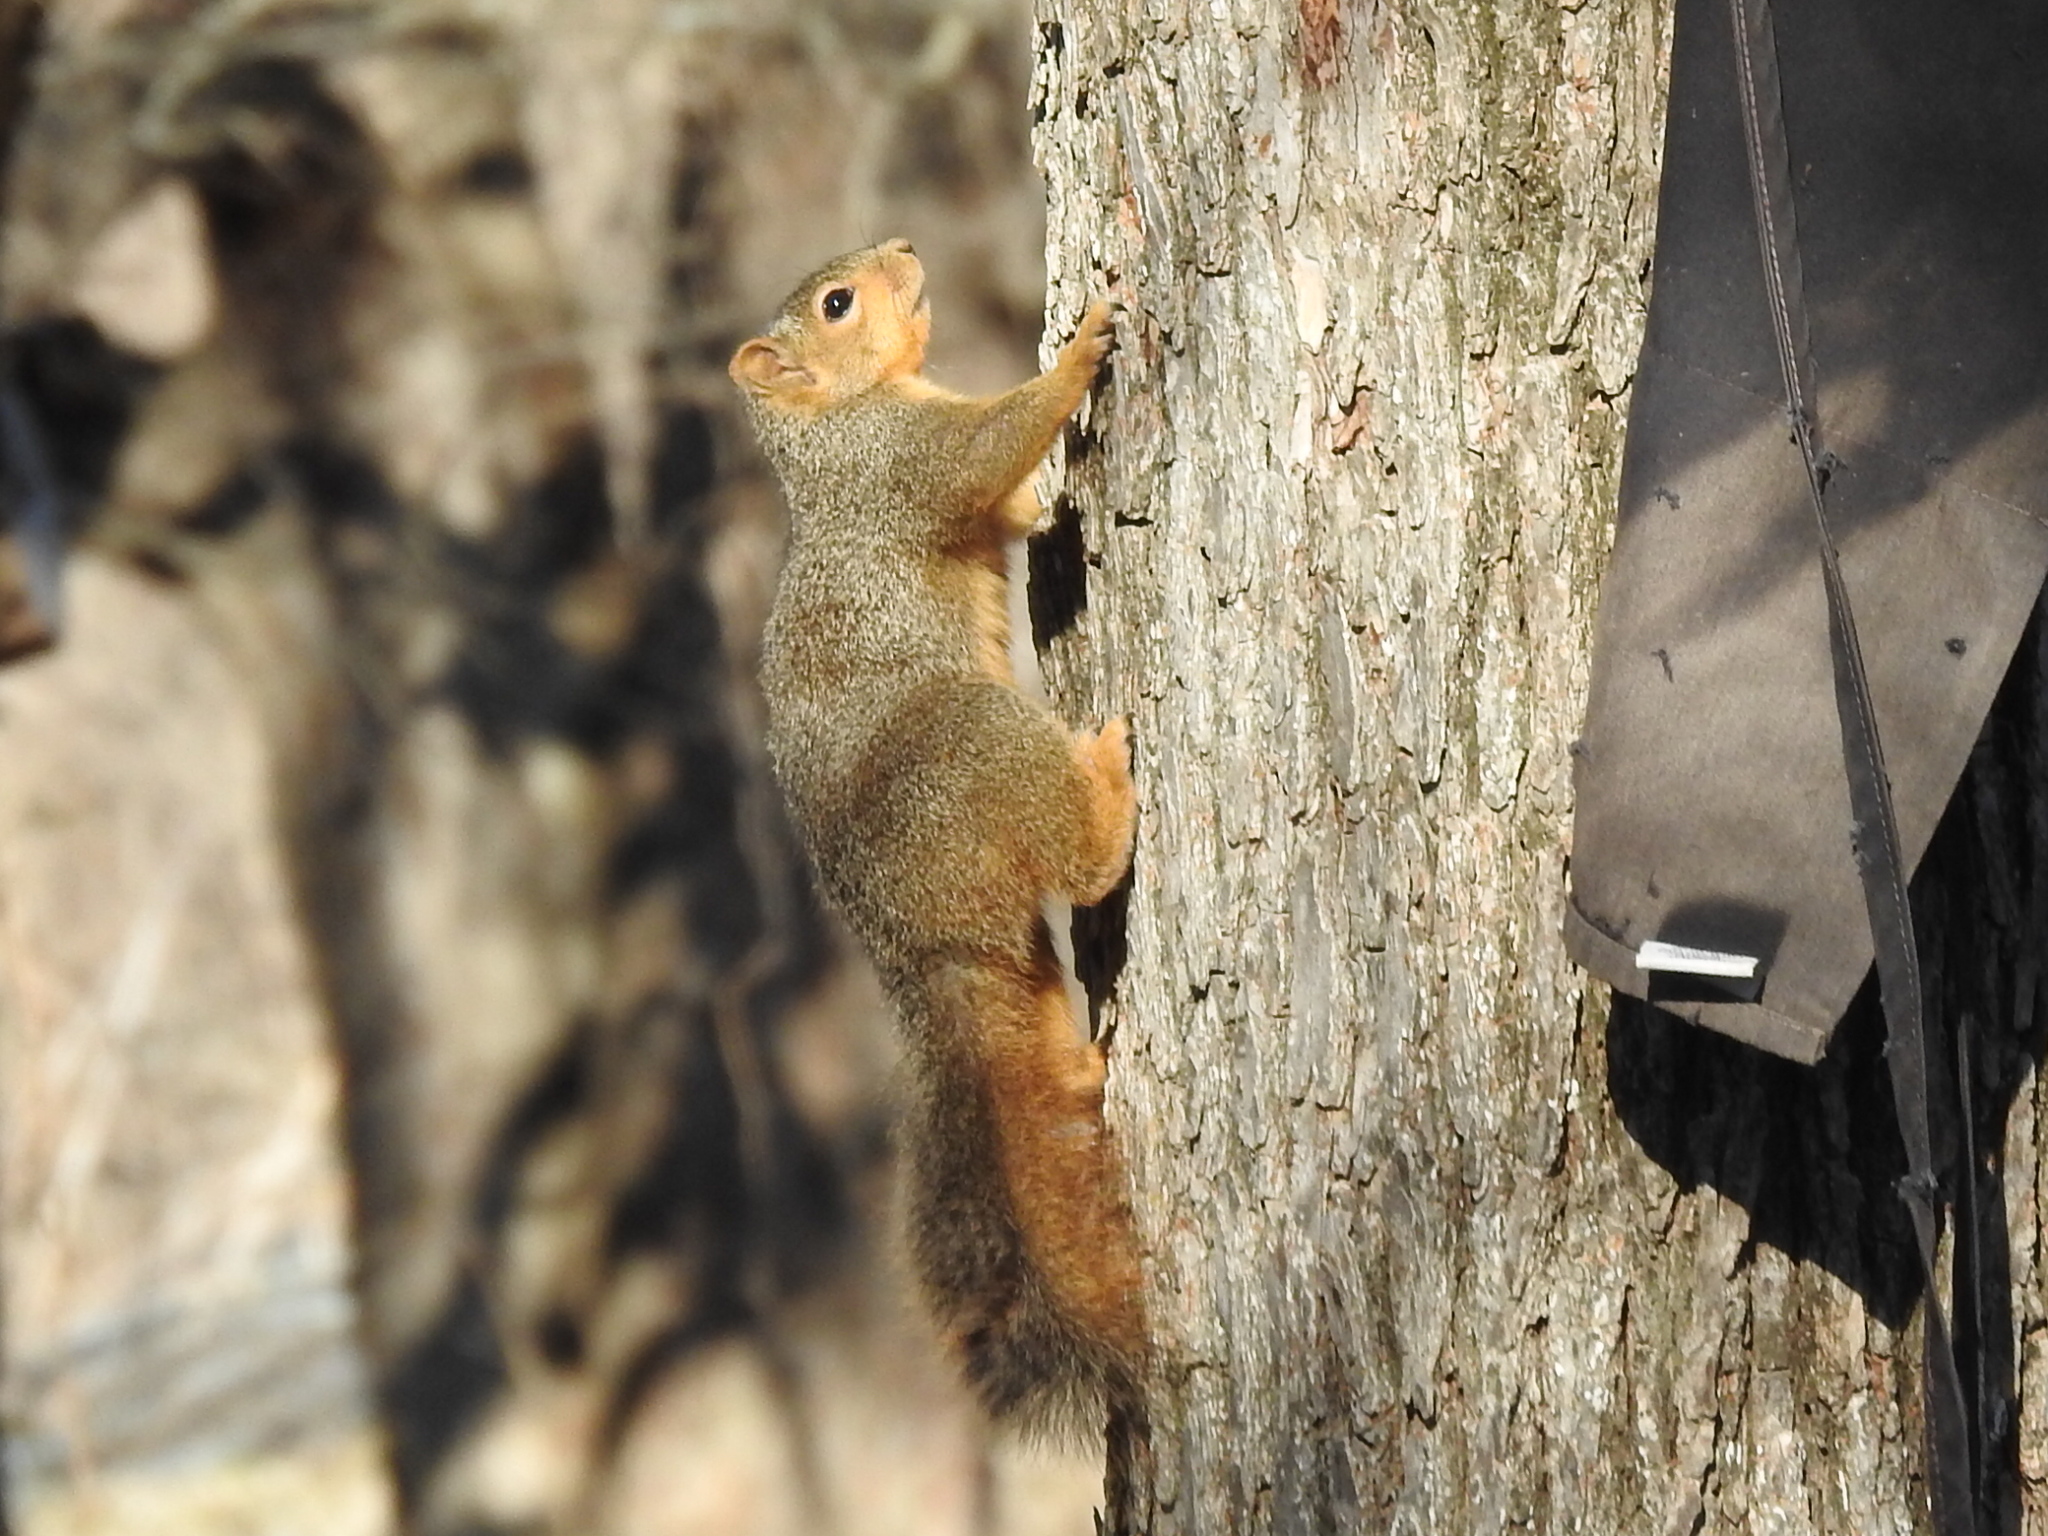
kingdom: Animalia
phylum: Chordata
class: Mammalia
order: Rodentia
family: Sciuridae
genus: Sciurus
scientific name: Sciurus niger
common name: Fox squirrel
